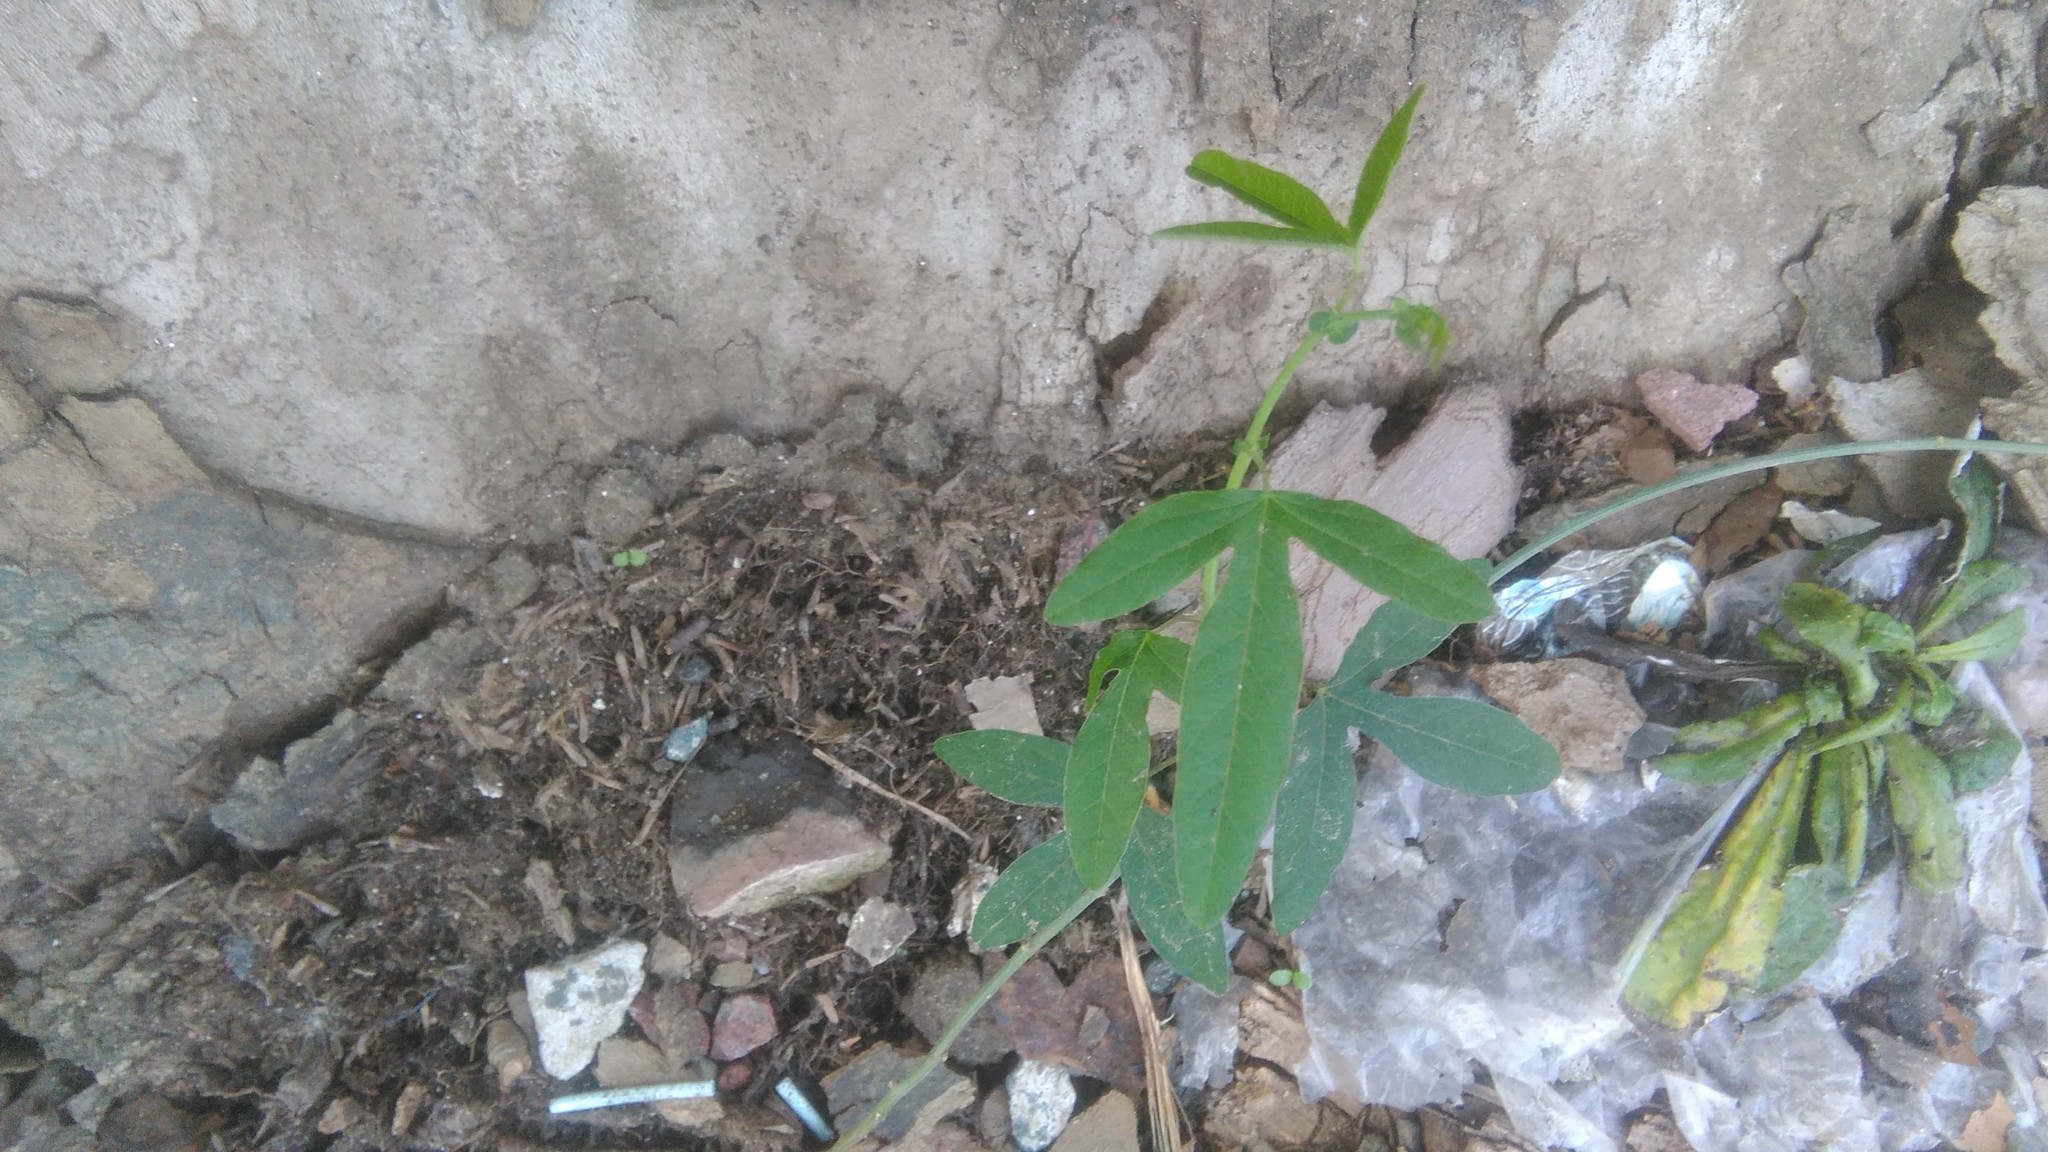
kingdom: Plantae
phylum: Tracheophyta
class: Magnoliopsida
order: Malpighiales
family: Passifloraceae
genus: Passiflora
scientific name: Passiflora caerulea
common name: Blue passionflower
